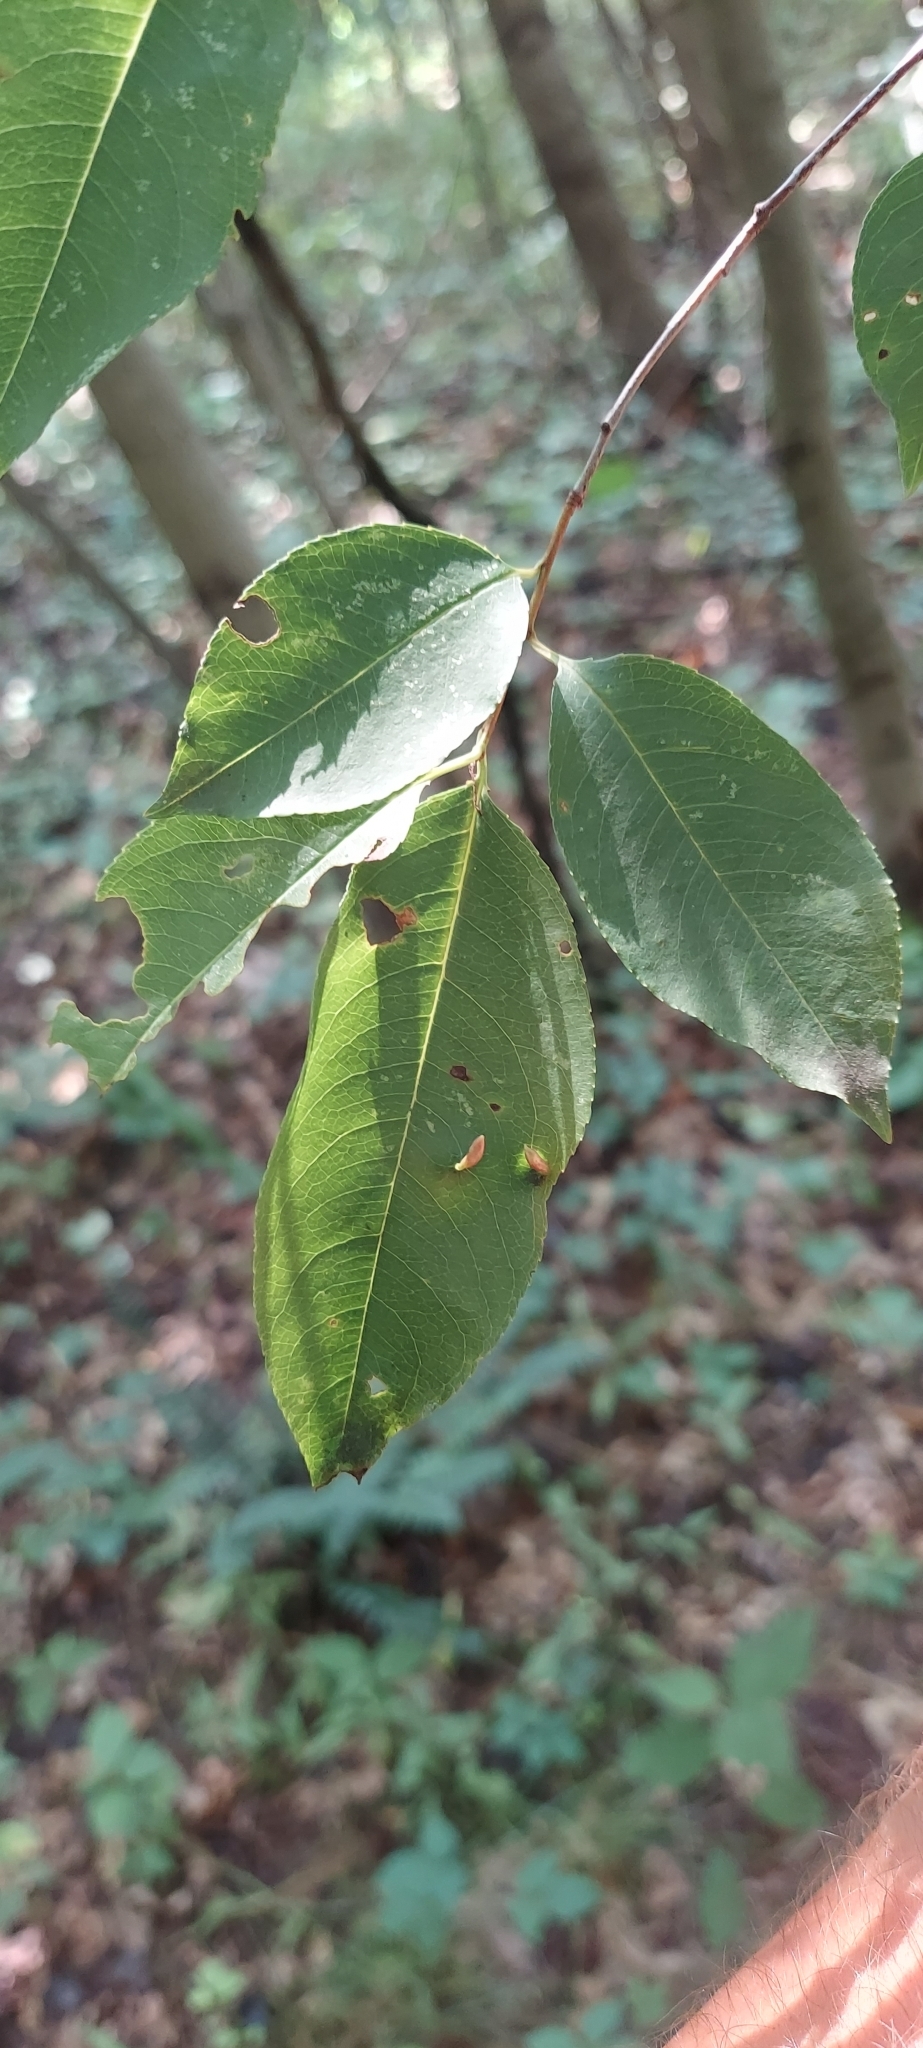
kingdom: Animalia
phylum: Arthropoda
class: Arachnida
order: Trombidiformes
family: Eriophyidae
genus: Eriophyes
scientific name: Eriophyes
